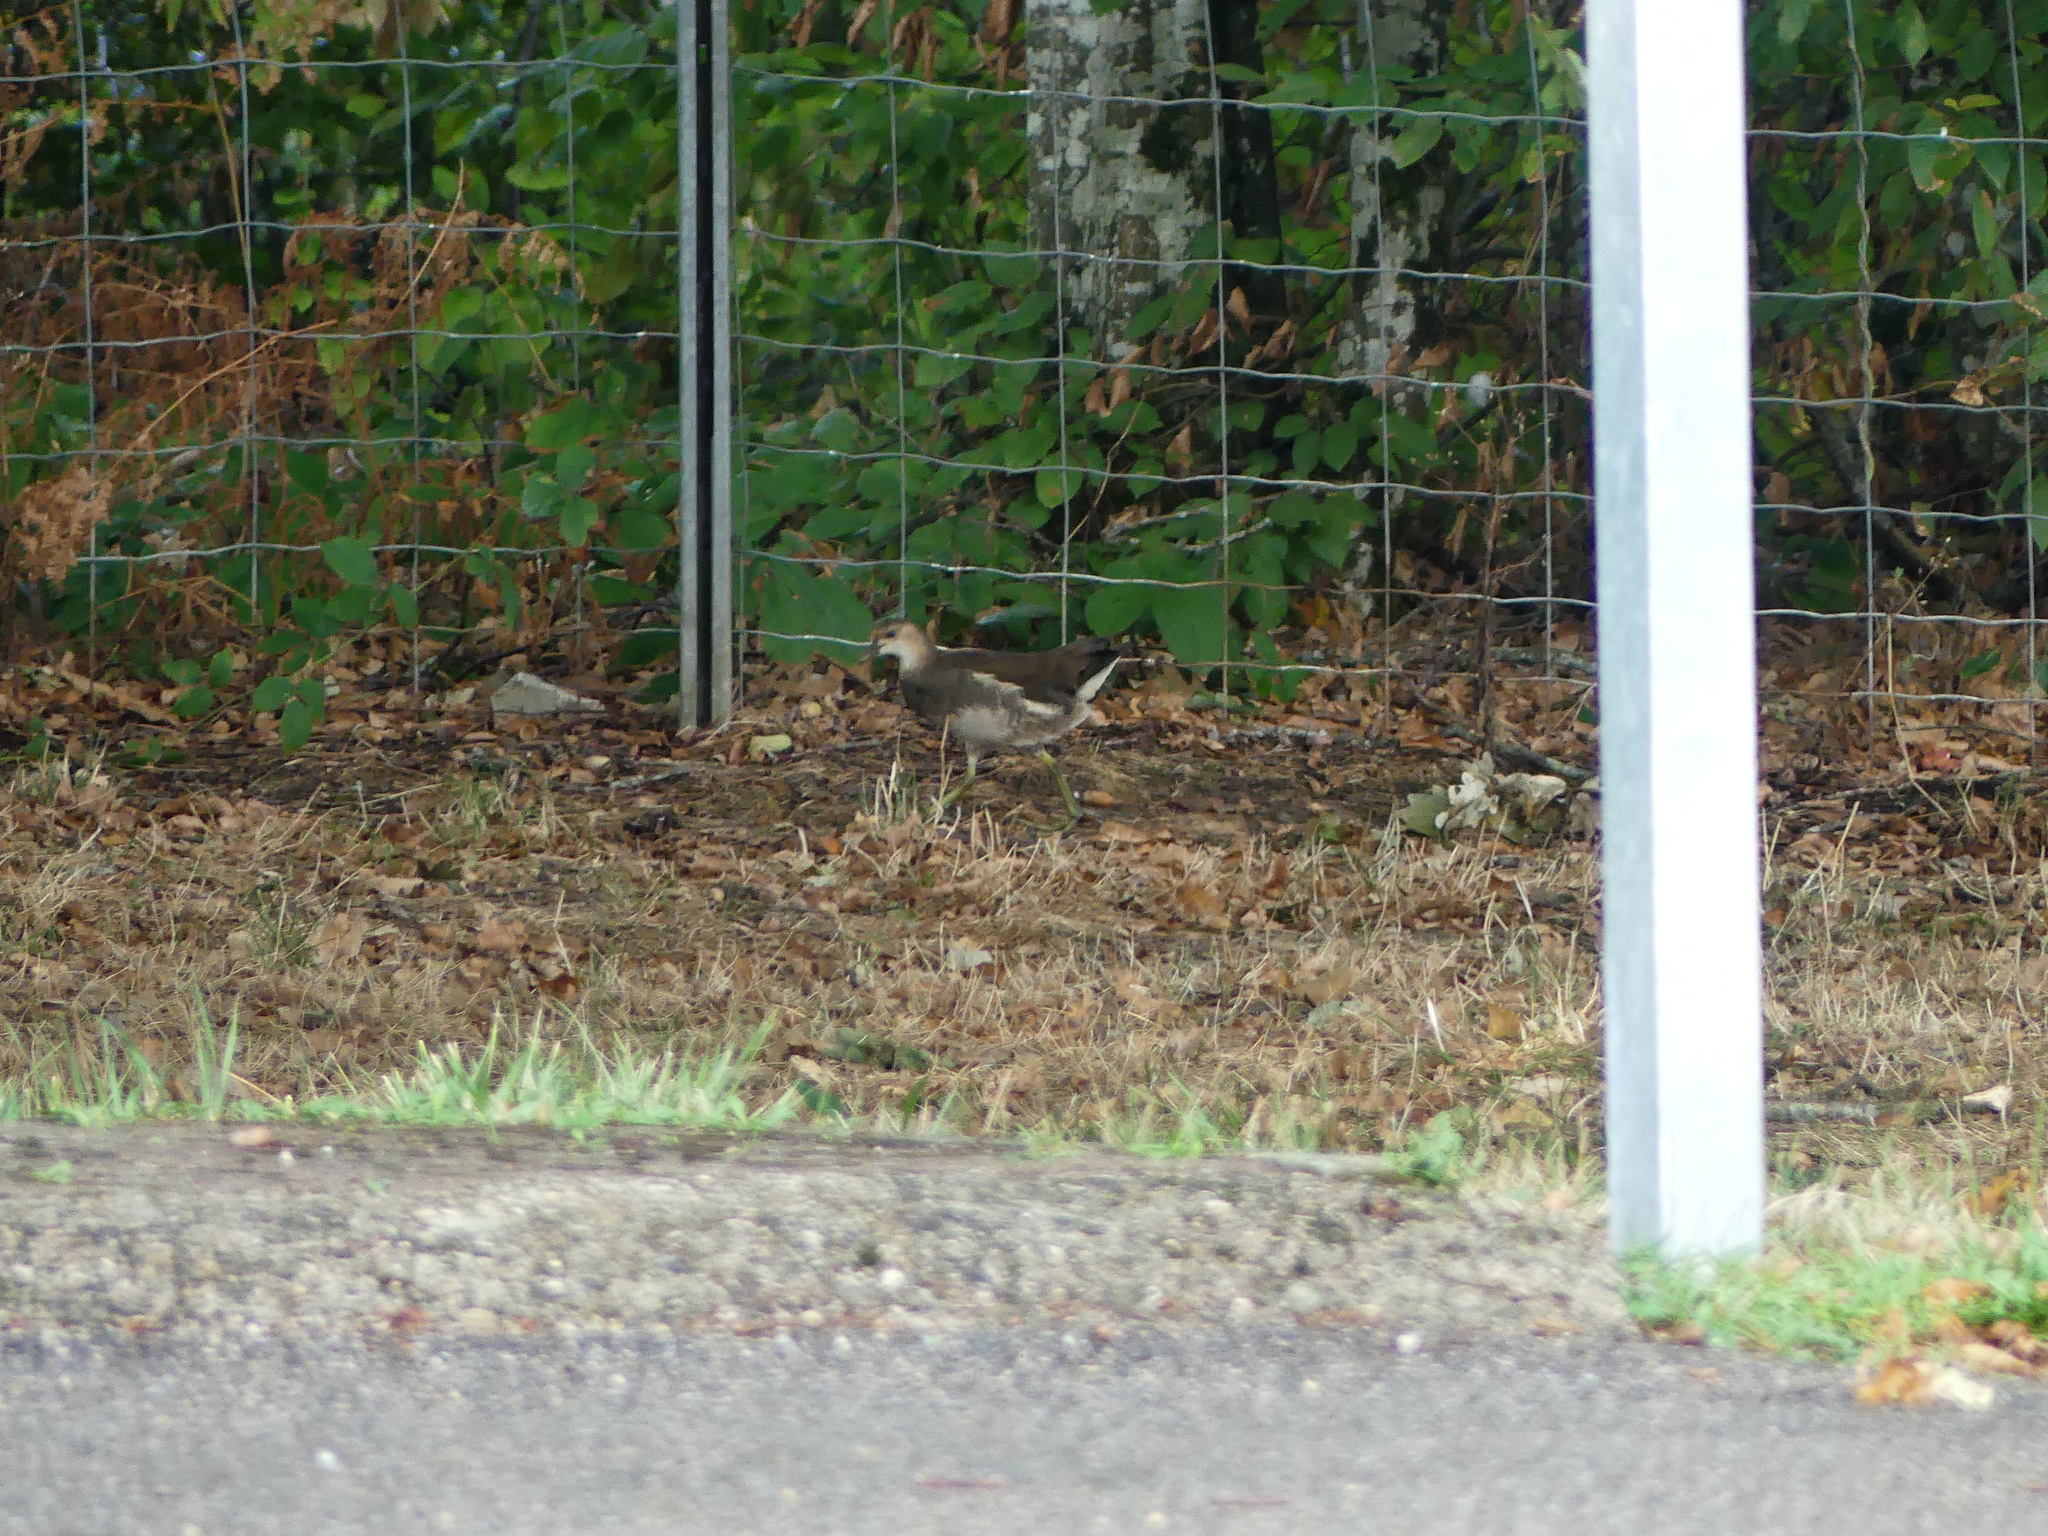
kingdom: Animalia
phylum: Chordata
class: Aves
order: Gruiformes
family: Rallidae
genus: Gallinula
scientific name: Gallinula chloropus
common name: Common moorhen
